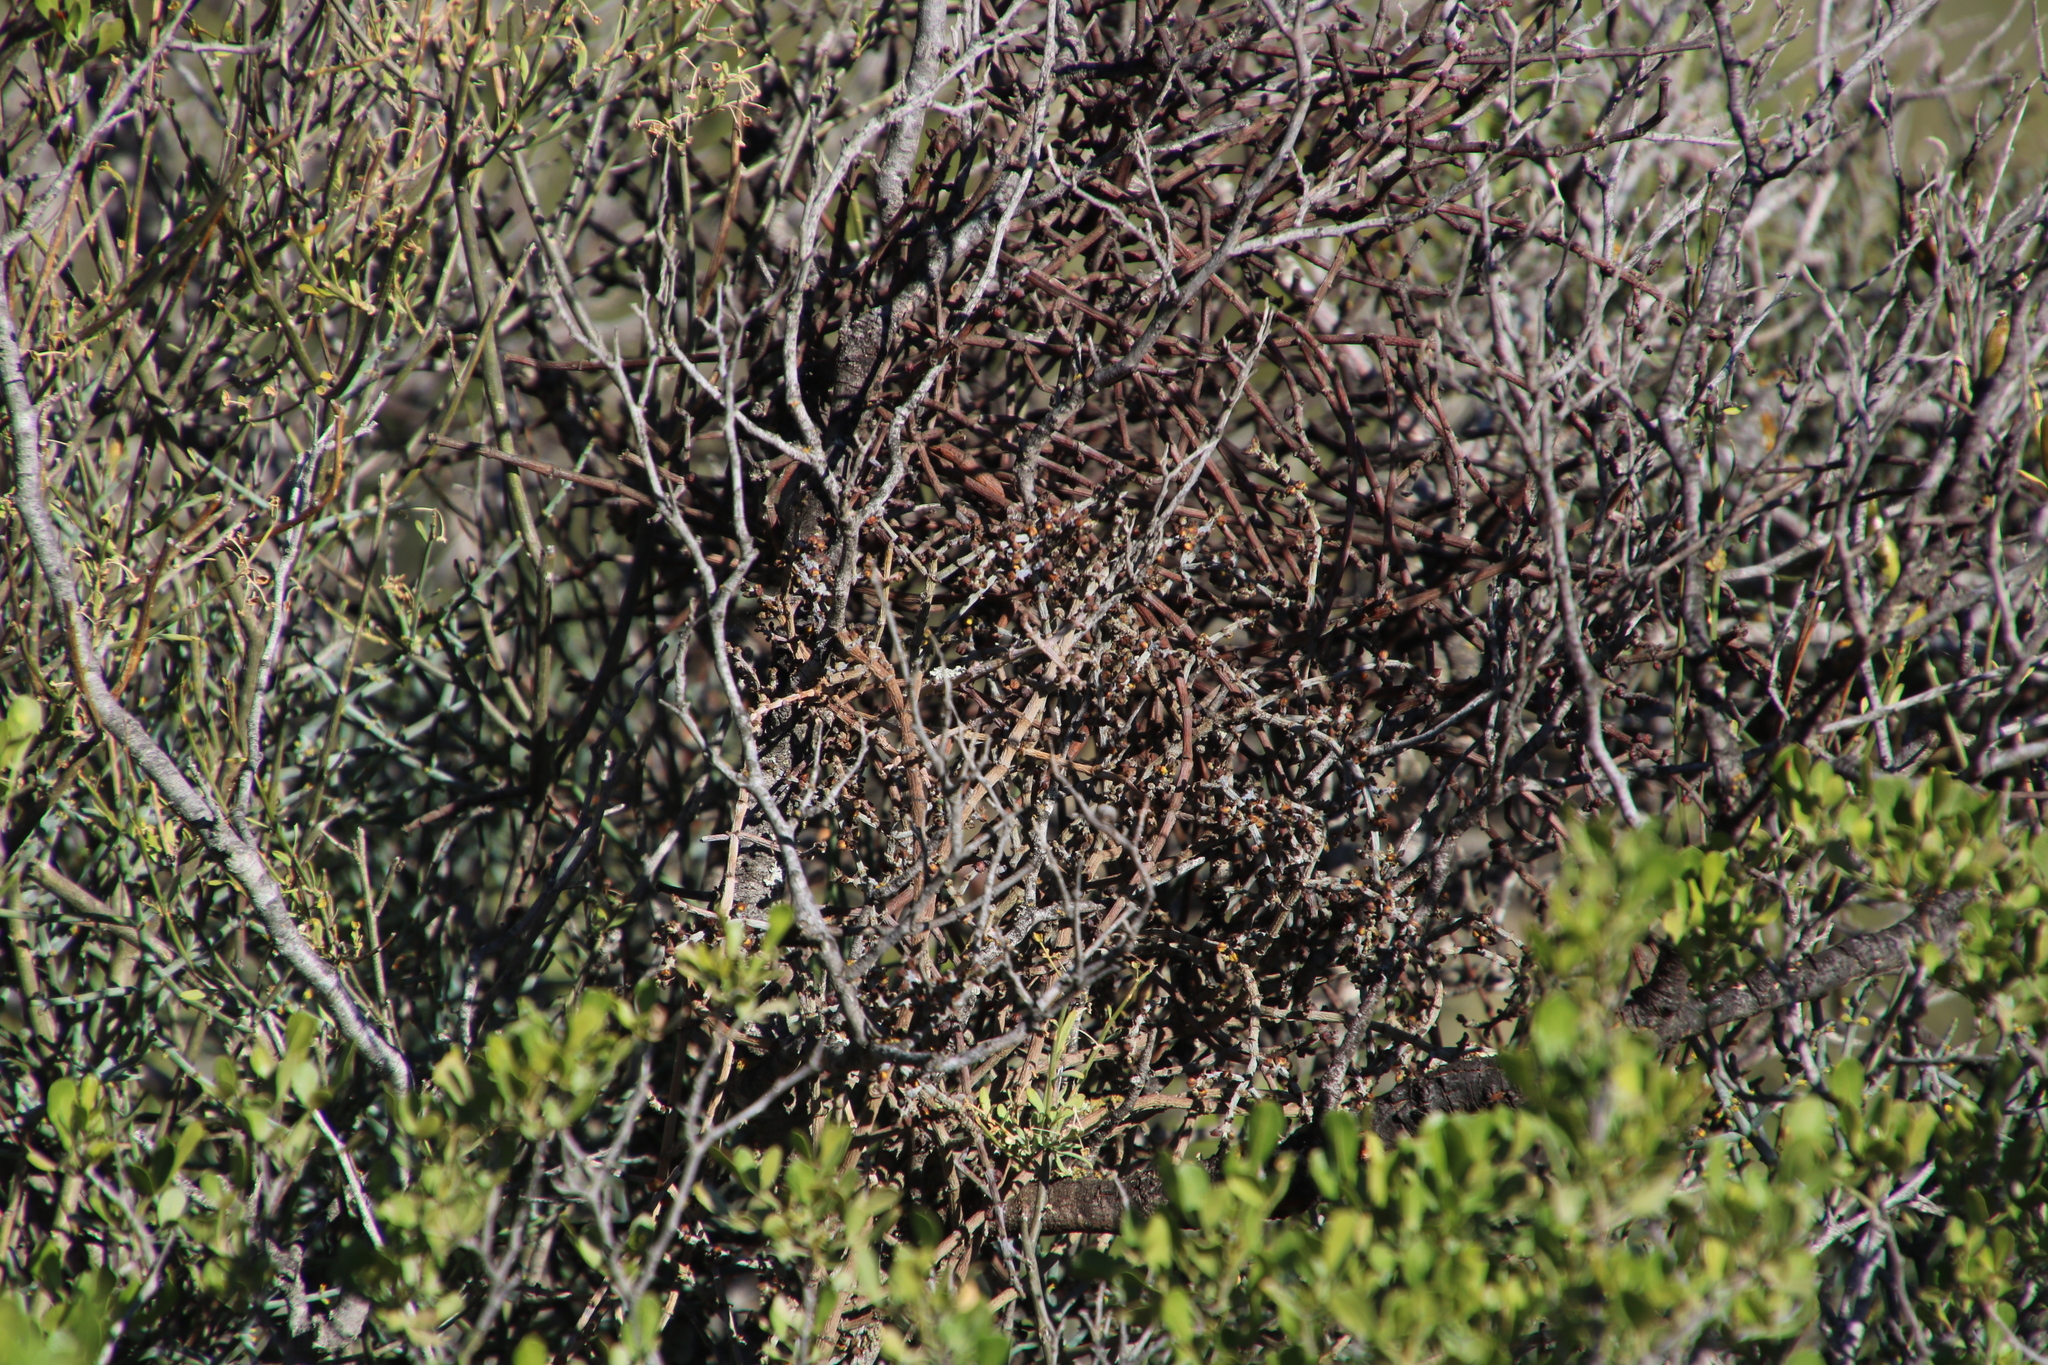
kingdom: Plantae
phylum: Tracheophyta
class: Magnoliopsida
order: Santalales
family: Viscaceae
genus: Viscum
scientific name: Viscum capense
